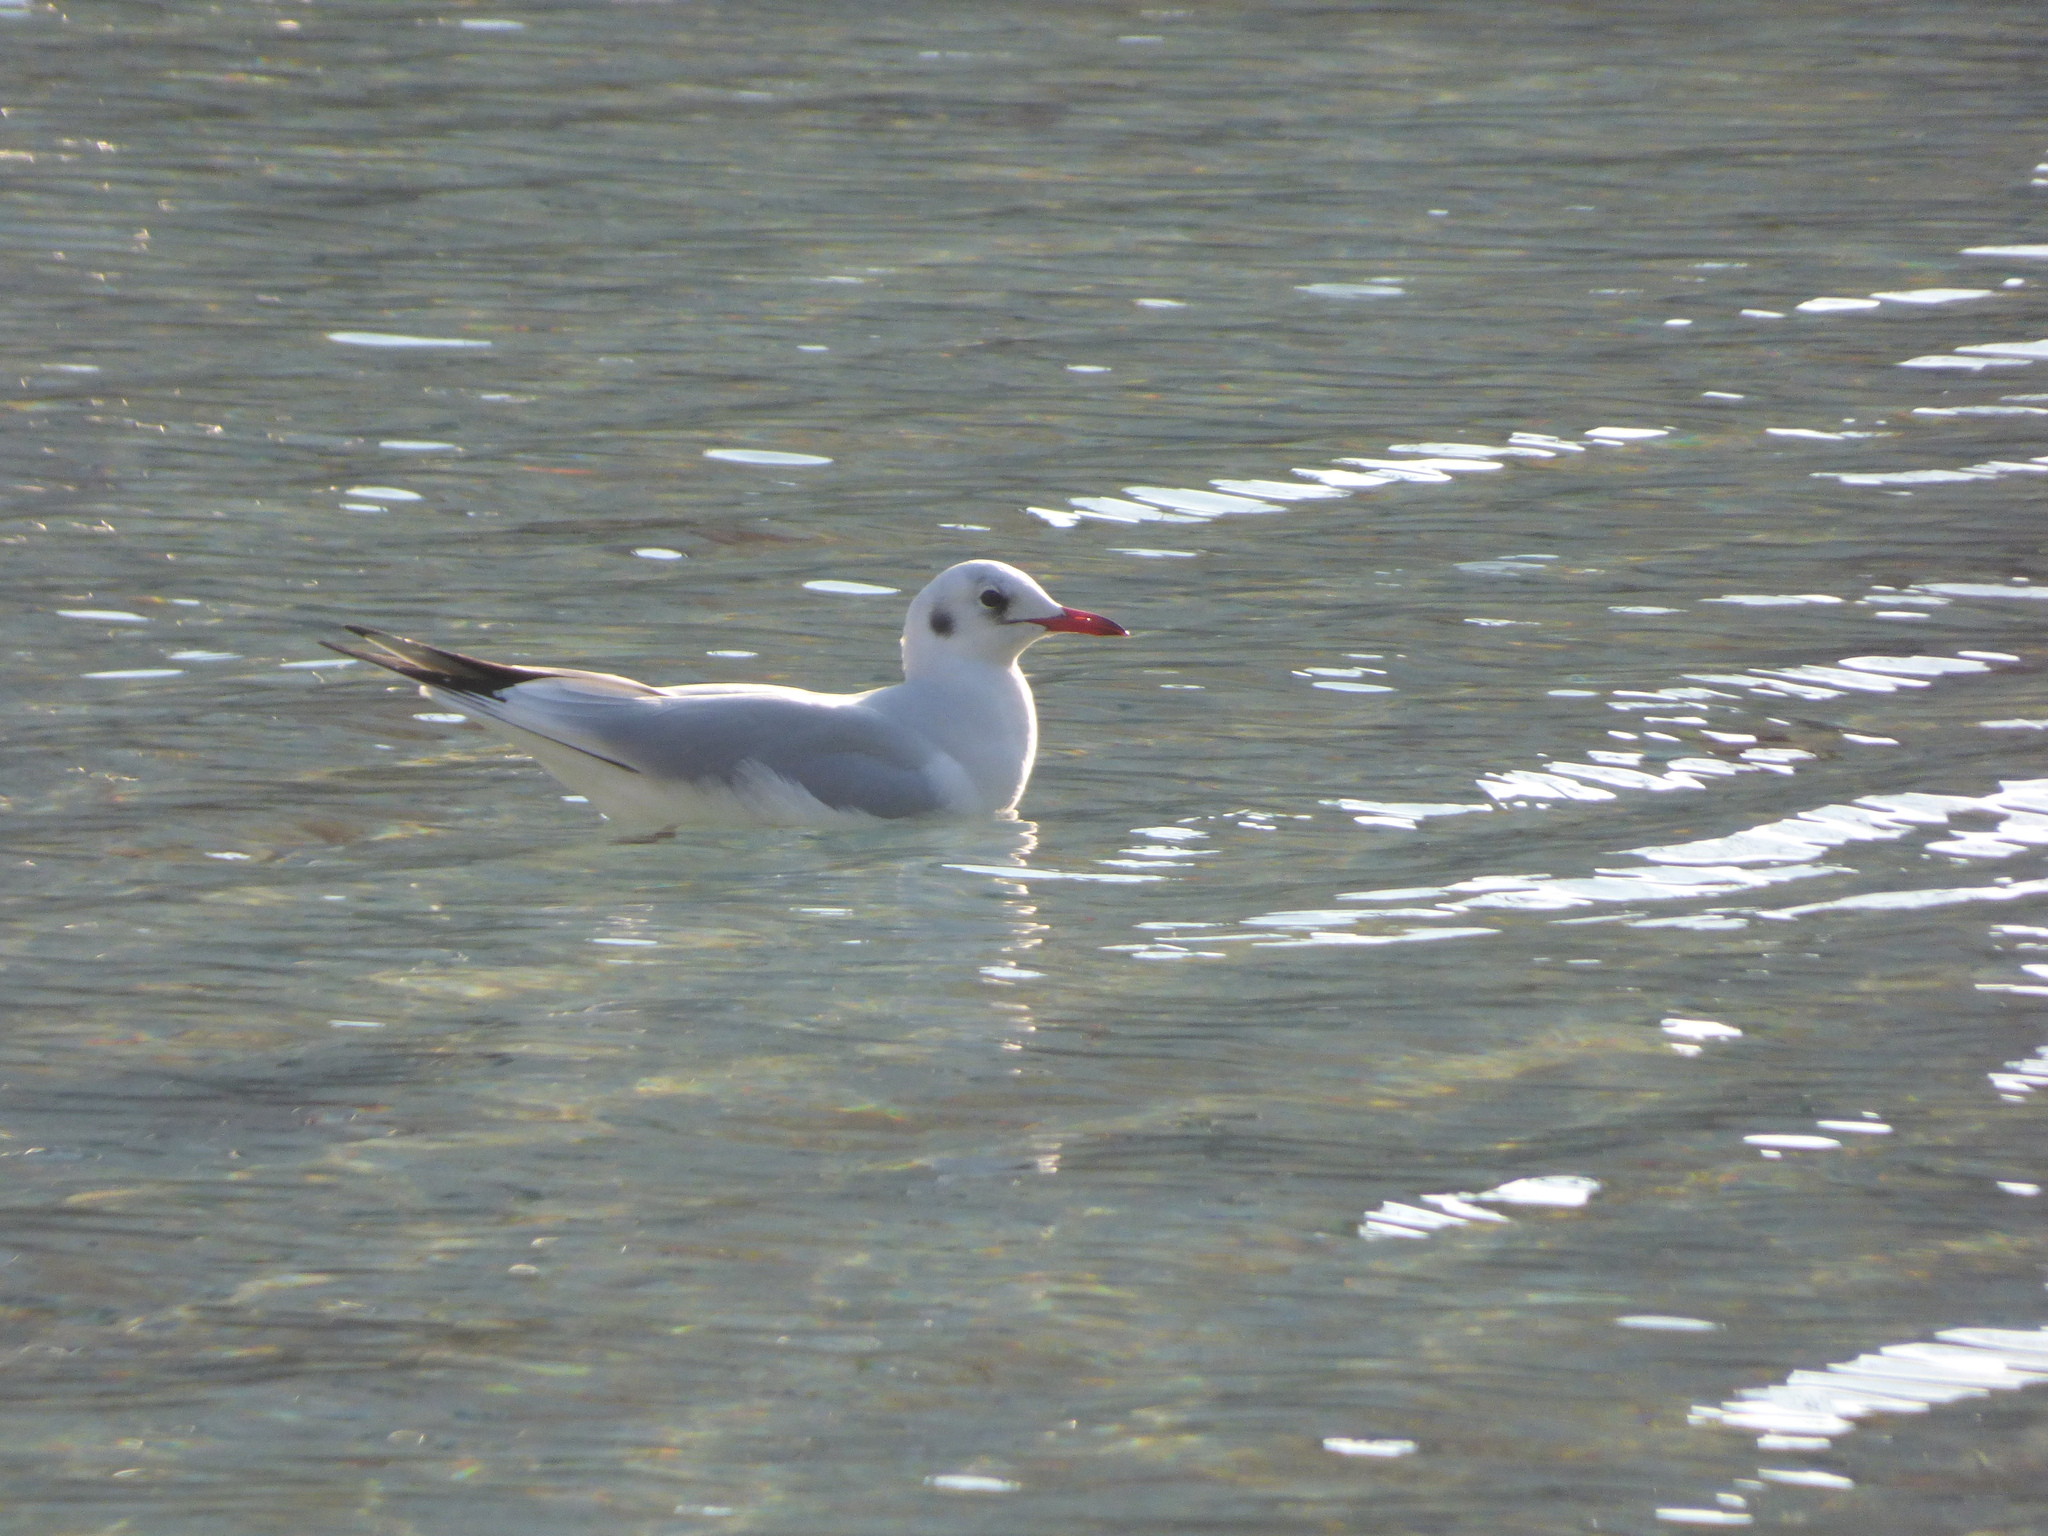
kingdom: Animalia
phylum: Chordata
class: Aves
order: Charadriiformes
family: Laridae
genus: Chroicocephalus
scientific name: Chroicocephalus ridibundus
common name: Black-headed gull
